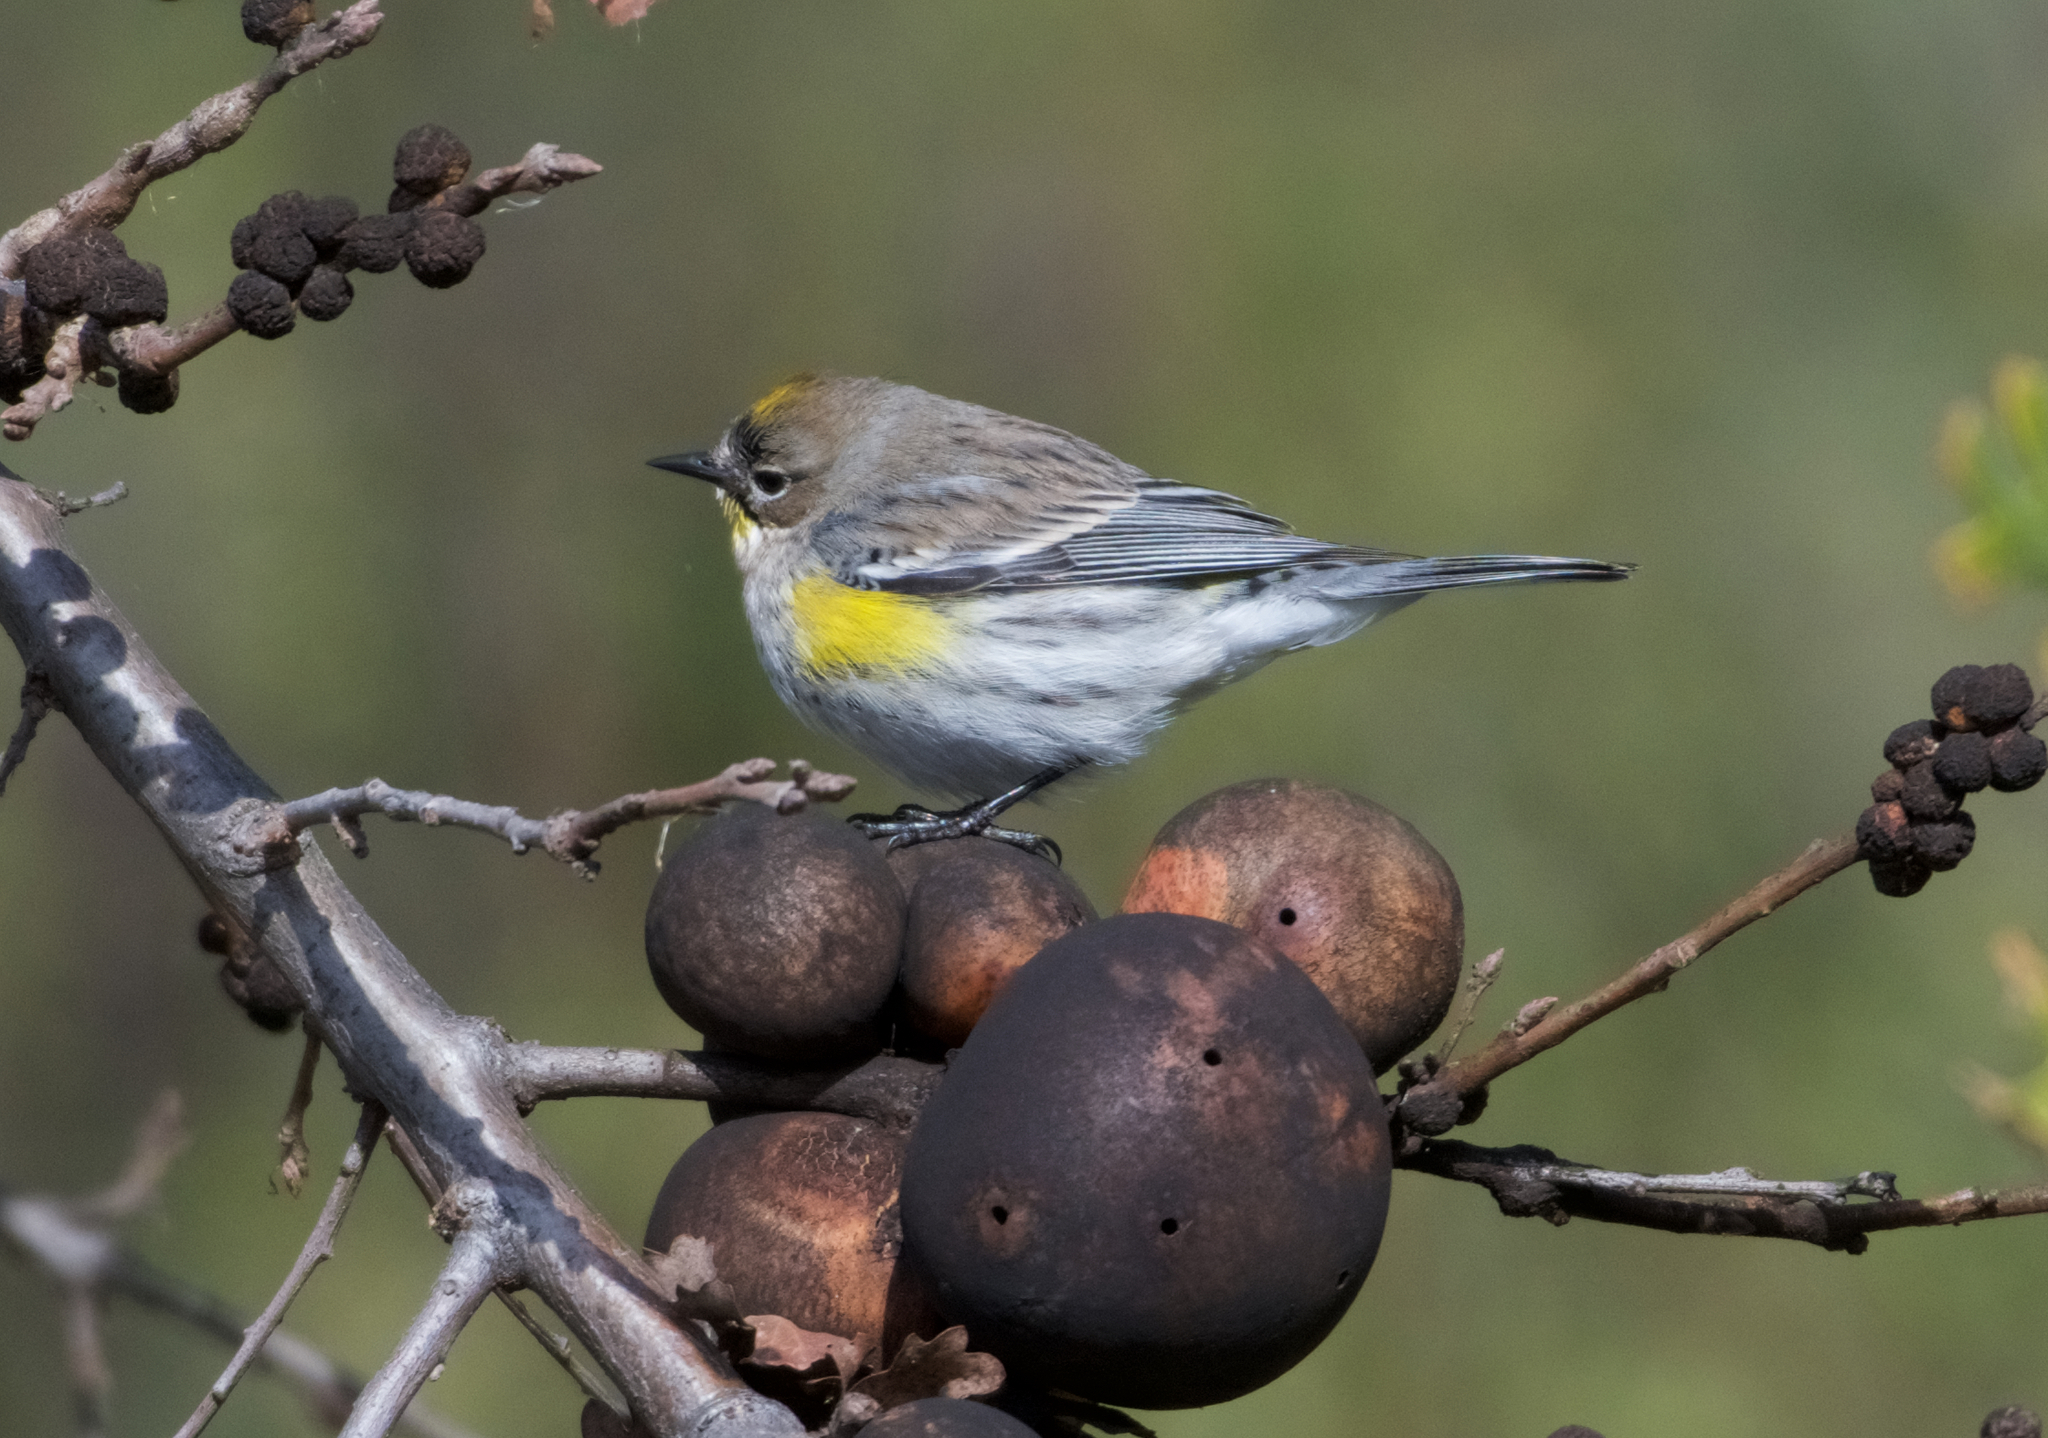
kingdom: Animalia
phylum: Chordata
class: Aves
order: Passeriformes
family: Parulidae
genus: Setophaga
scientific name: Setophaga coronata
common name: Myrtle warbler
